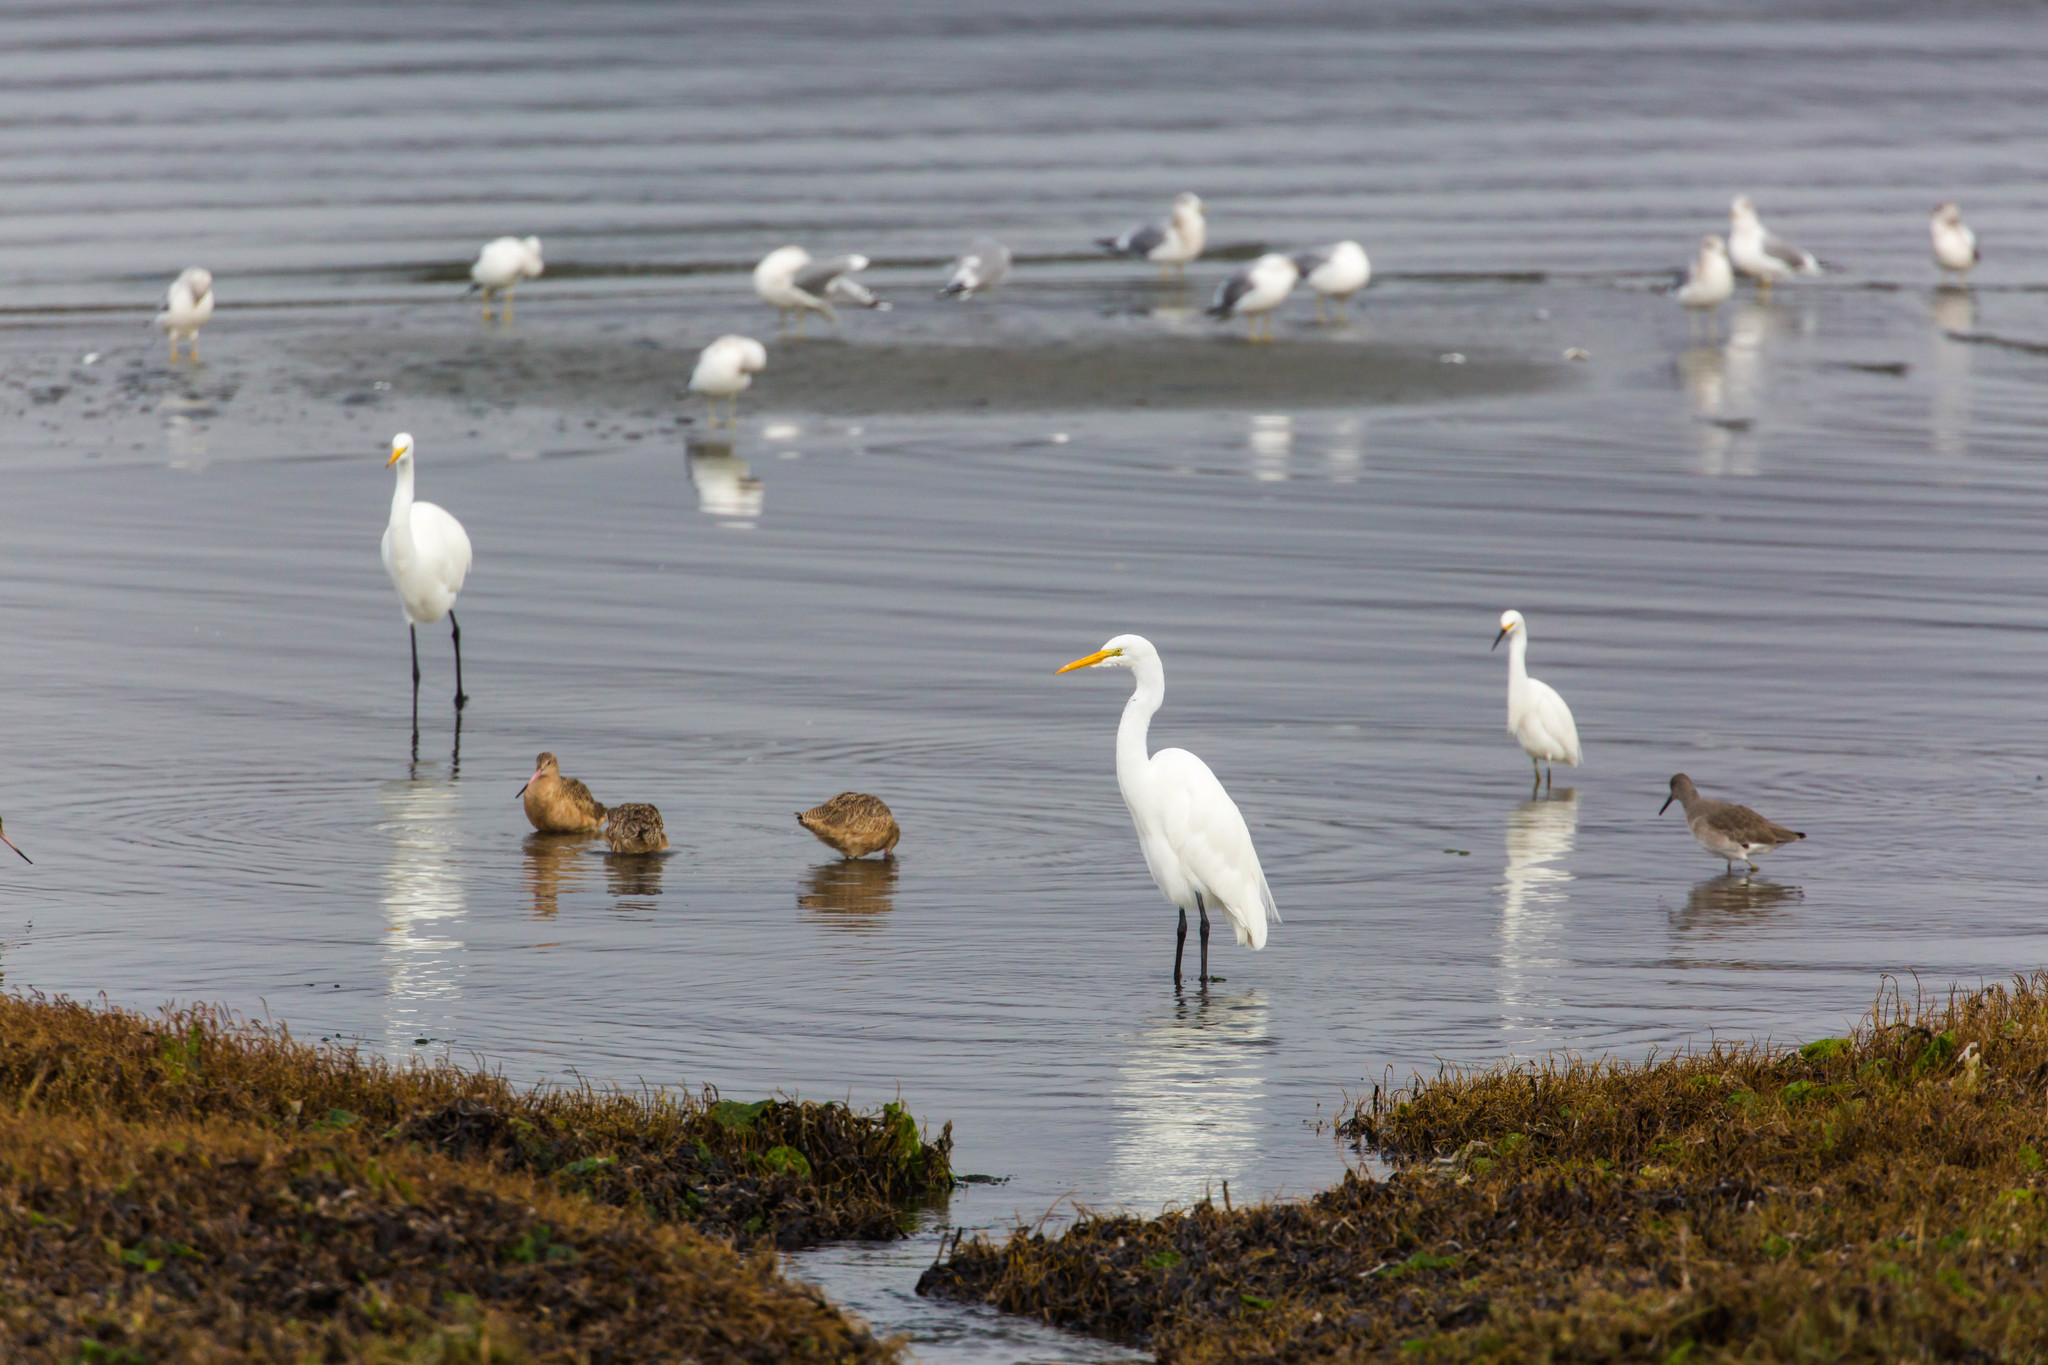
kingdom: Animalia
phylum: Chordata
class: Aves
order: Pelecaniformes
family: Ardeidae
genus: Ardea
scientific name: Ardea alba
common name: Great egret
